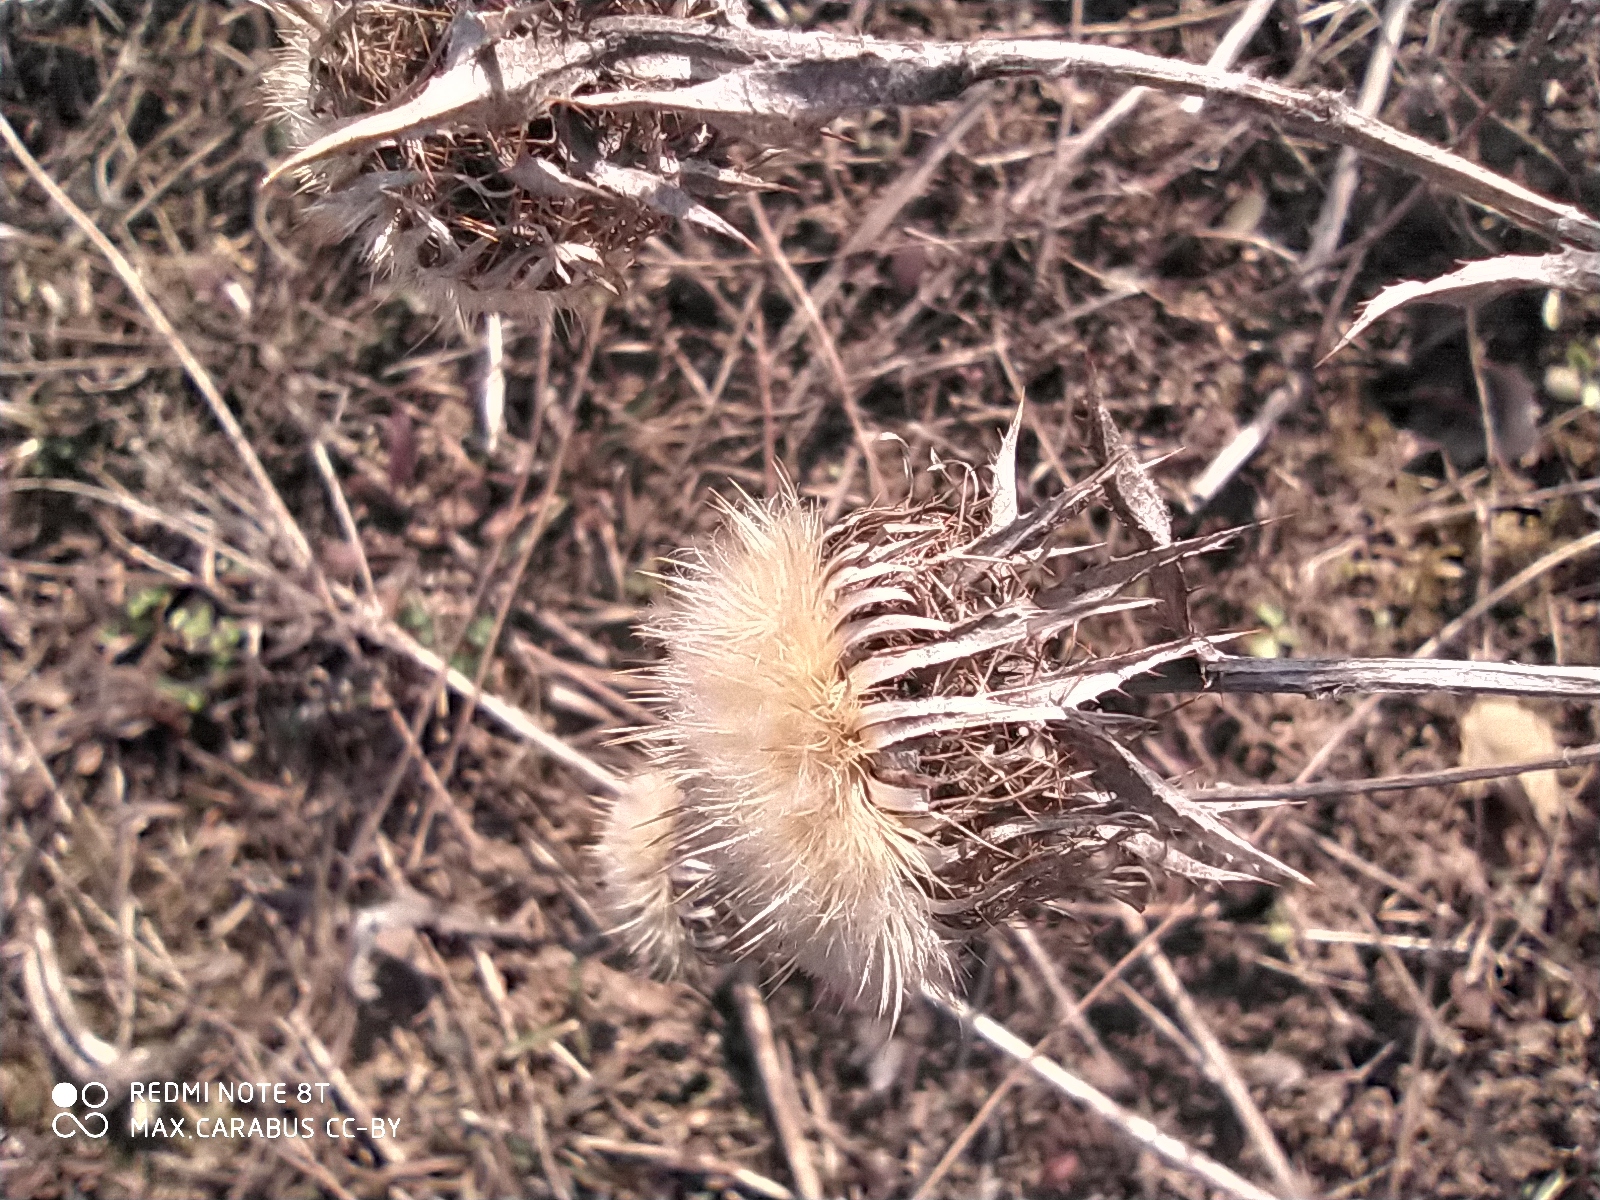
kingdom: Plantae
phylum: Tracheophyta
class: Magnoliopsida
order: Asterales
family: Asteraceae
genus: Carlina
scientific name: Carlina biebersteinii
